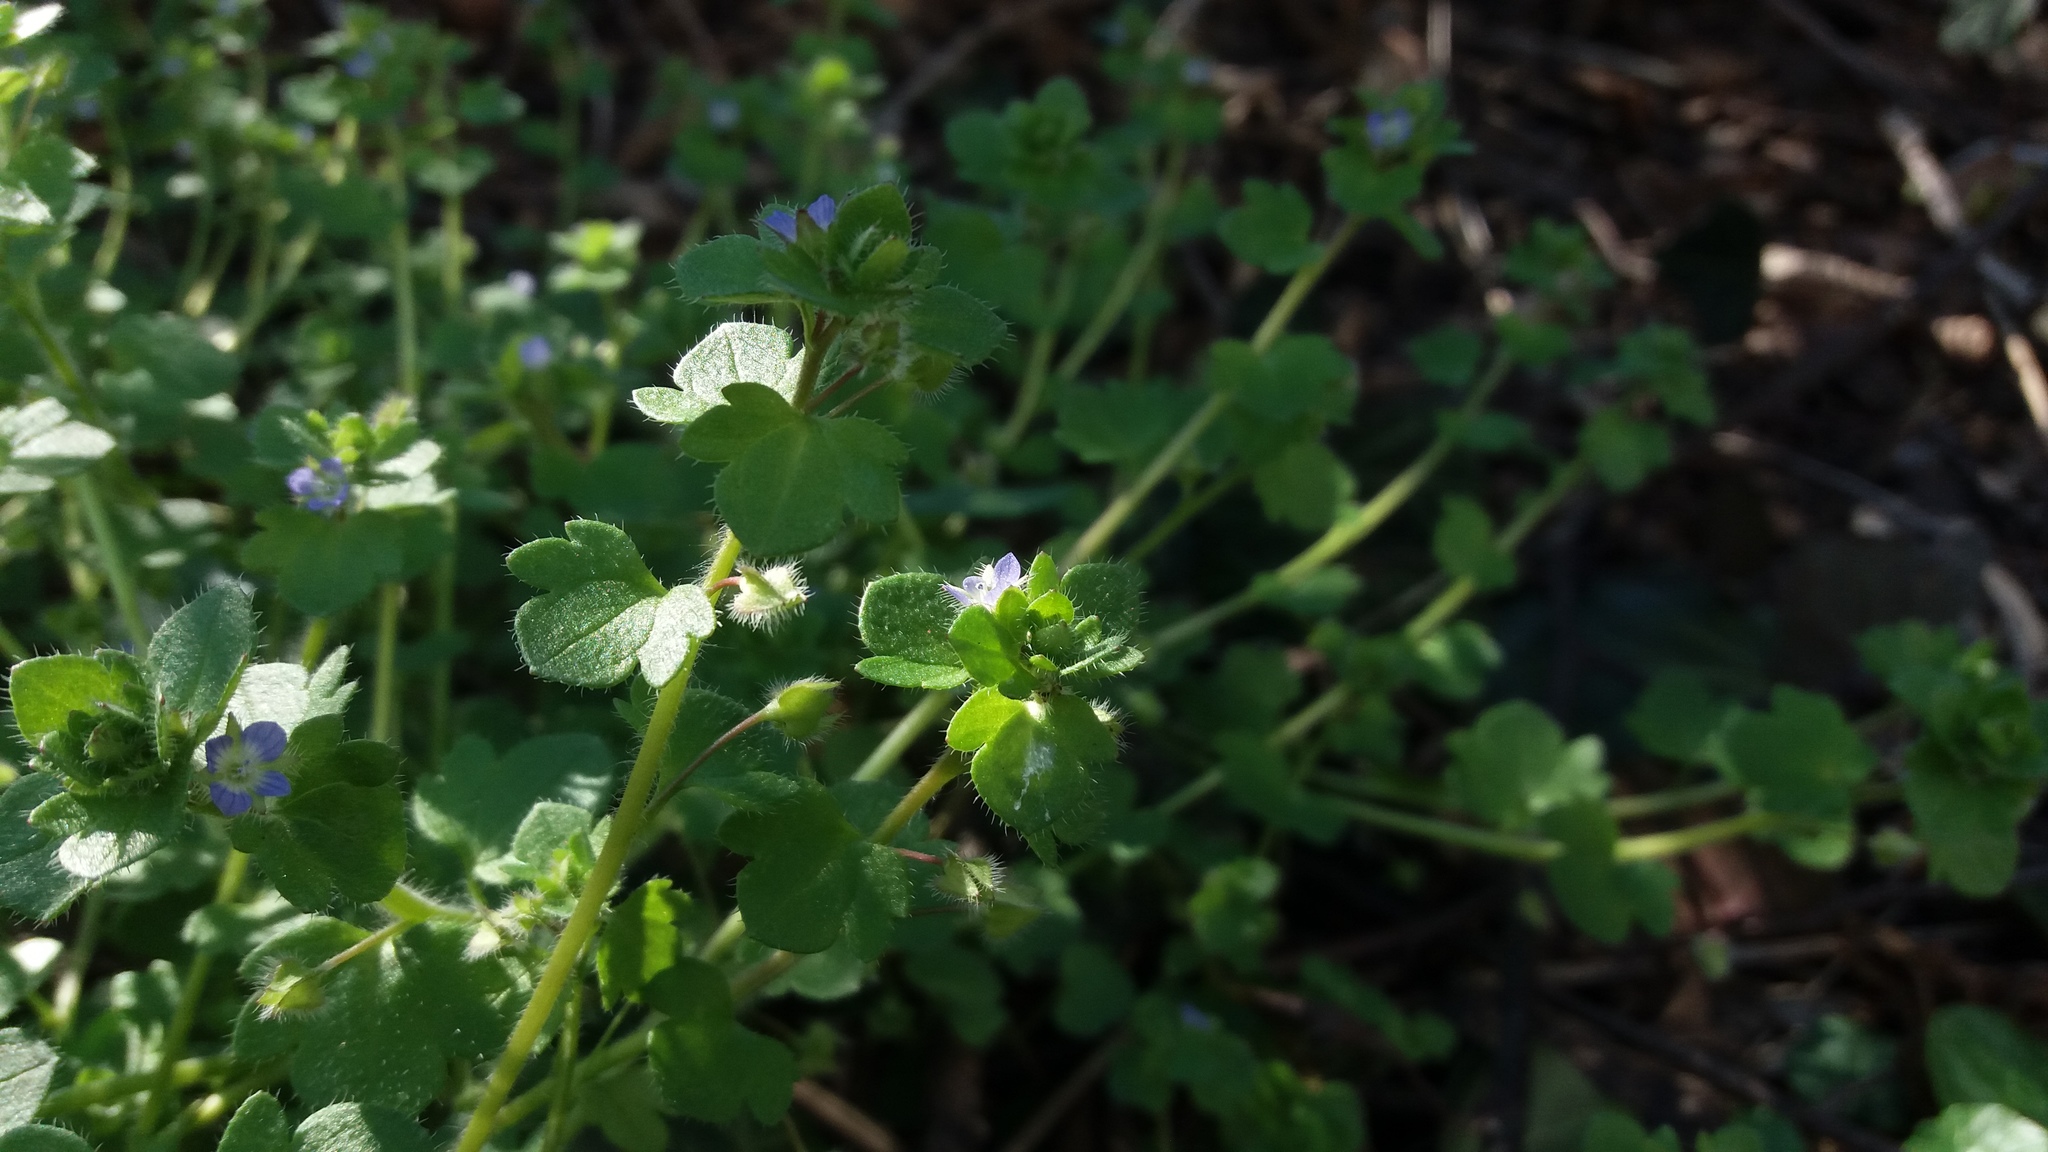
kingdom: Plantae
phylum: Tracheophyta
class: Magnoliopsida
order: Lamiales
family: Plantaginaceae
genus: Veronica
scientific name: Veronica hederifolia
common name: Ivy-leaved speedwell
